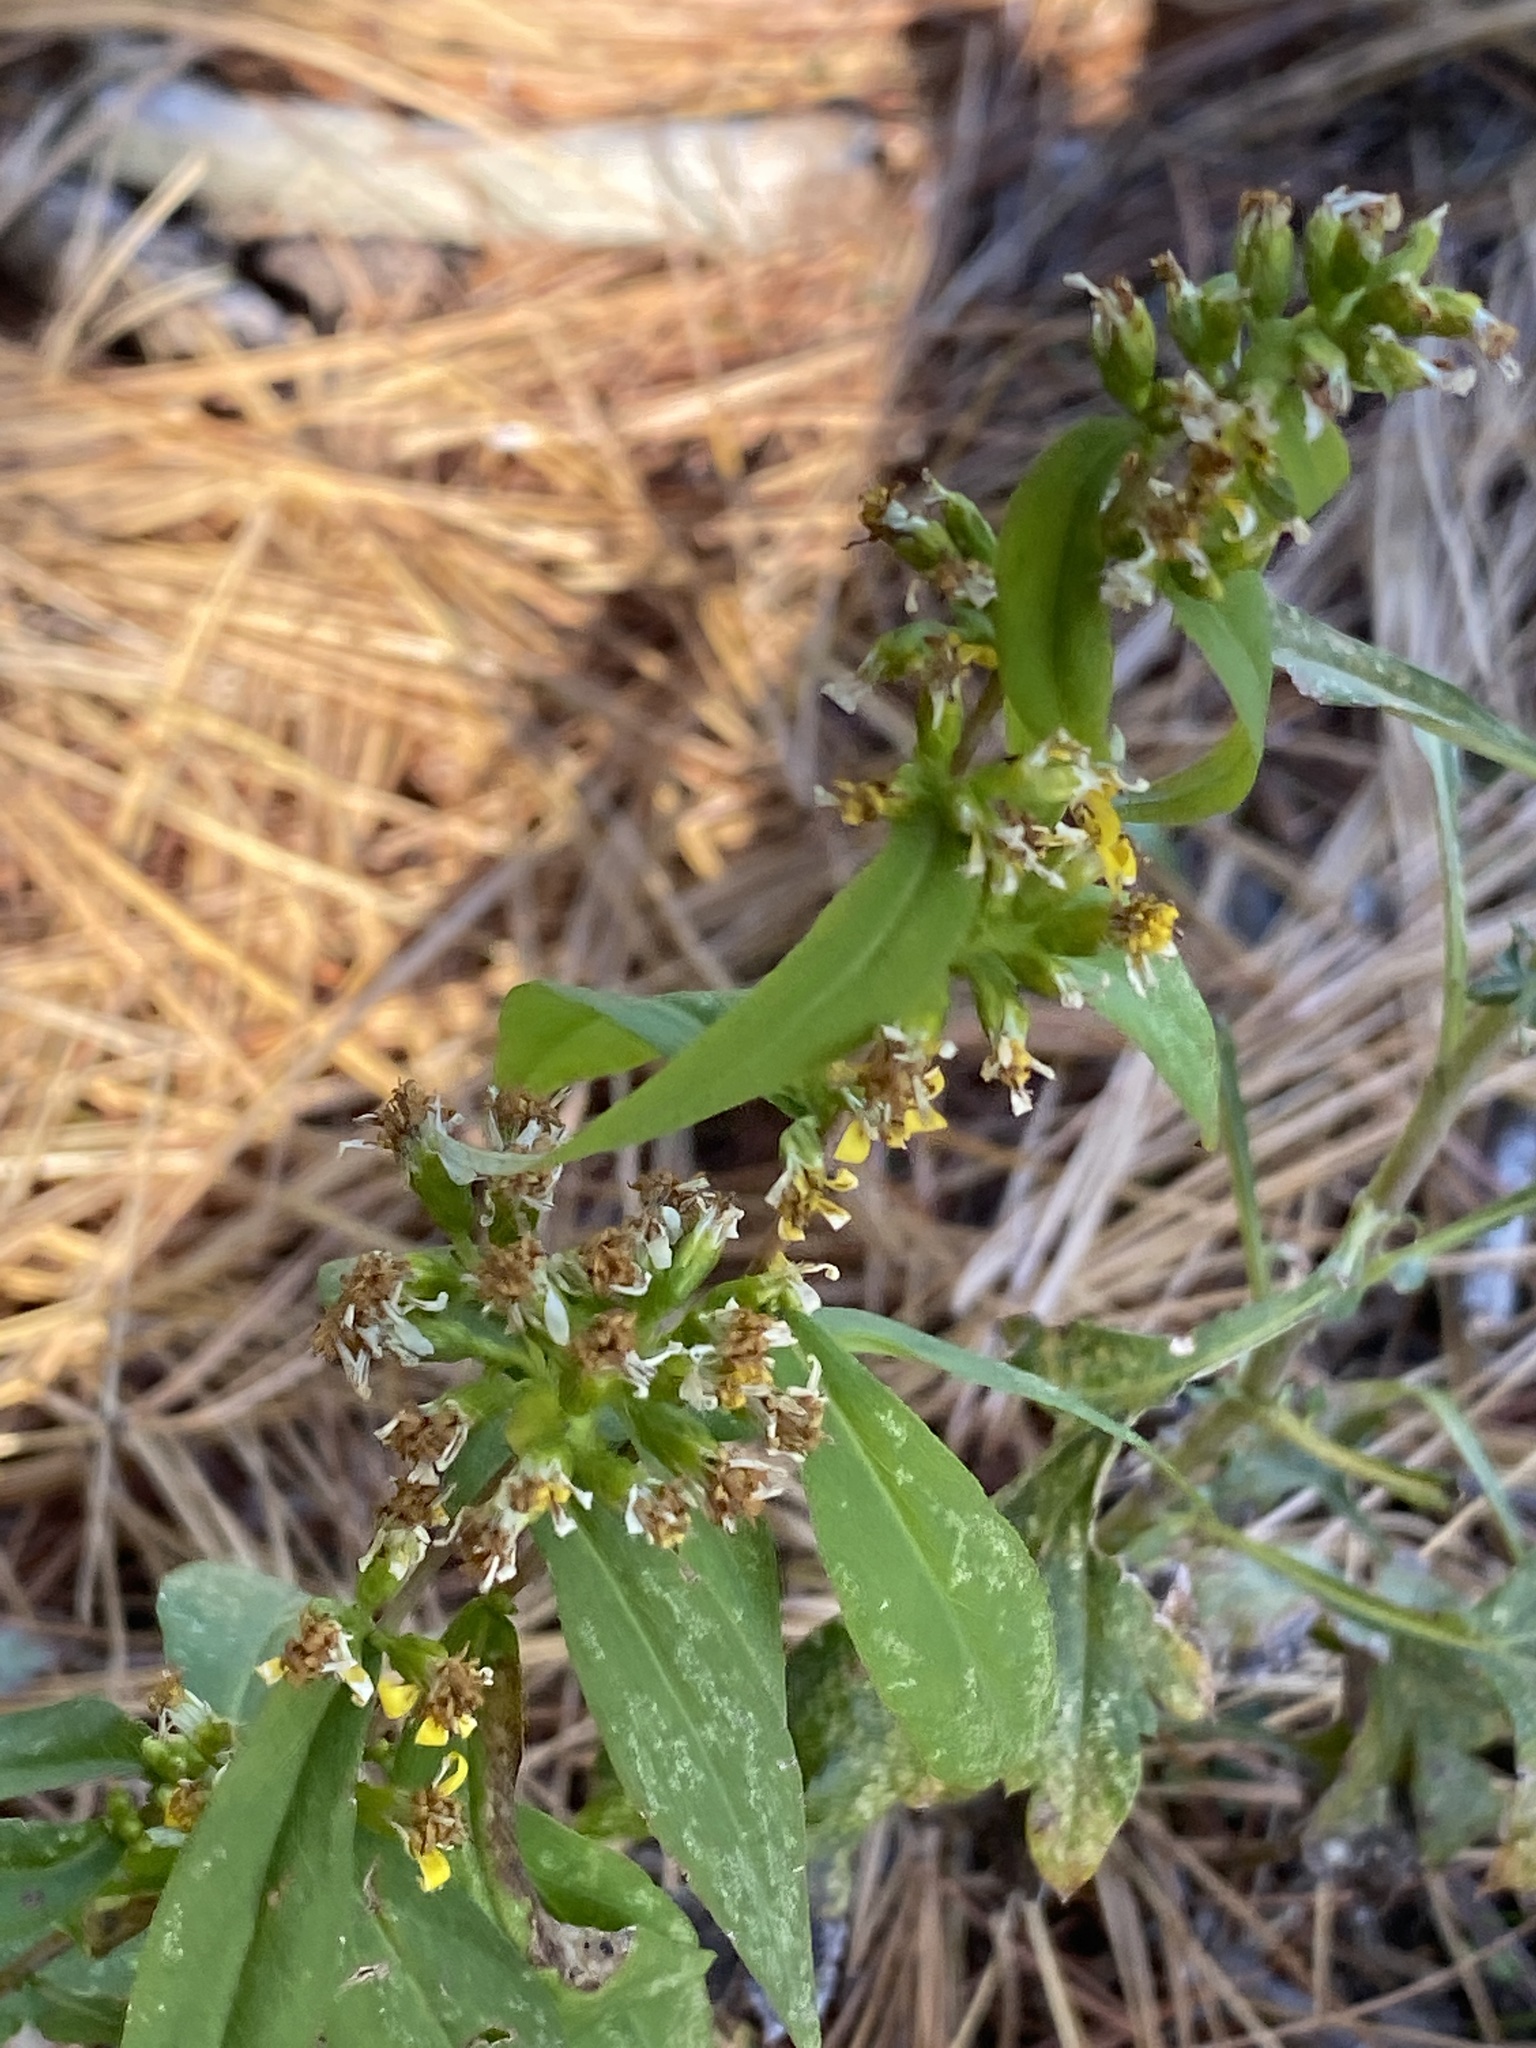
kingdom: Plantae
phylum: Tracheophyta
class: Magnoliopsida
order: Asterales
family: Asteraceae
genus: Solidago
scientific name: Solidago caesia
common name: Woodland goldenrod
